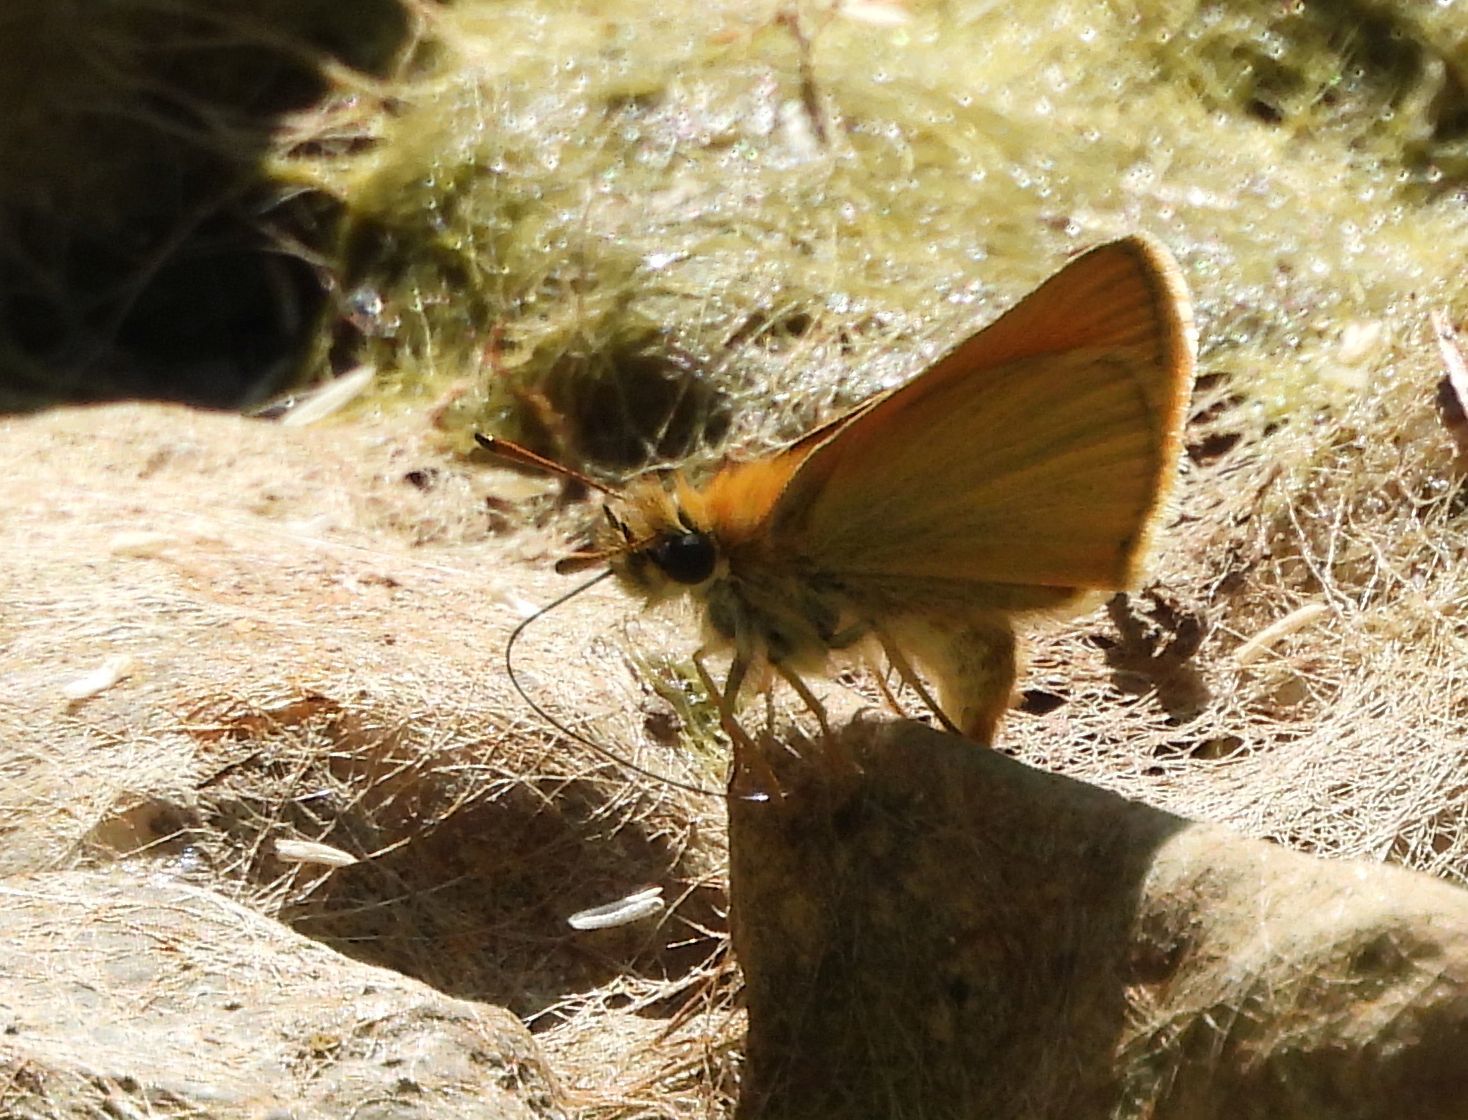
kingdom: Animalia
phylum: Arthropoda
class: Insecta
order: Lepidoptera
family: Hesperiidae
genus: Thymelicus
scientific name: Thymelicus lineola
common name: Essex skipper
